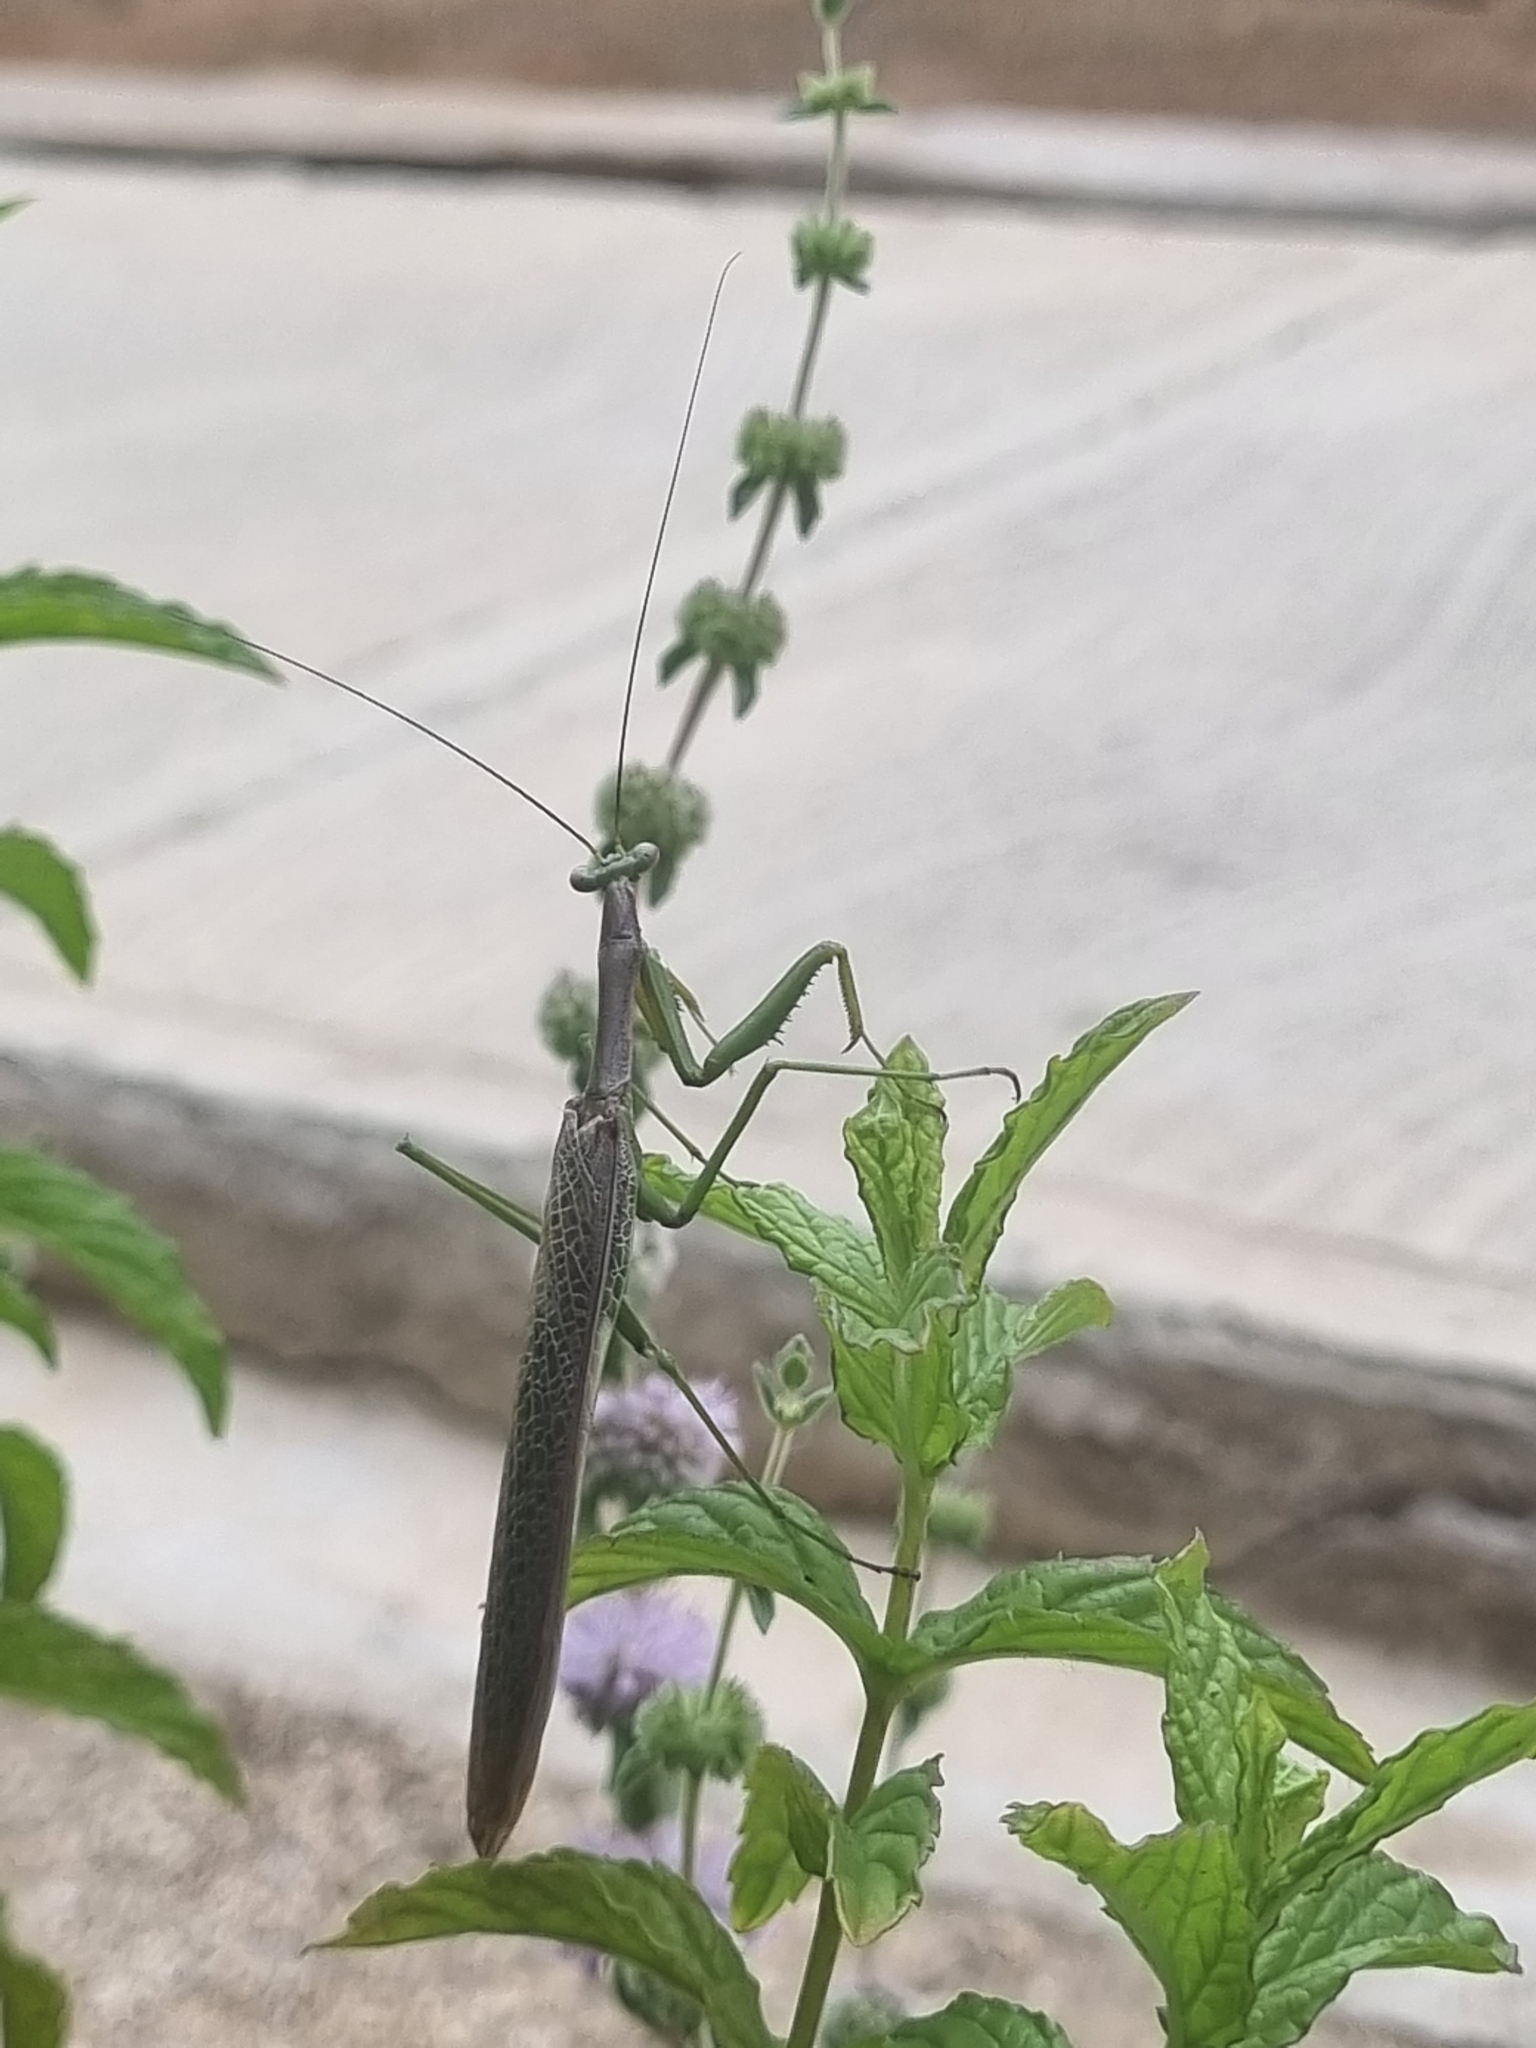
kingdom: Animalia
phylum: Arthropoda
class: Insecta
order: Mantodea
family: Coptopterygidae
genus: Coptopteryx
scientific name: Coptopteryx gayi
